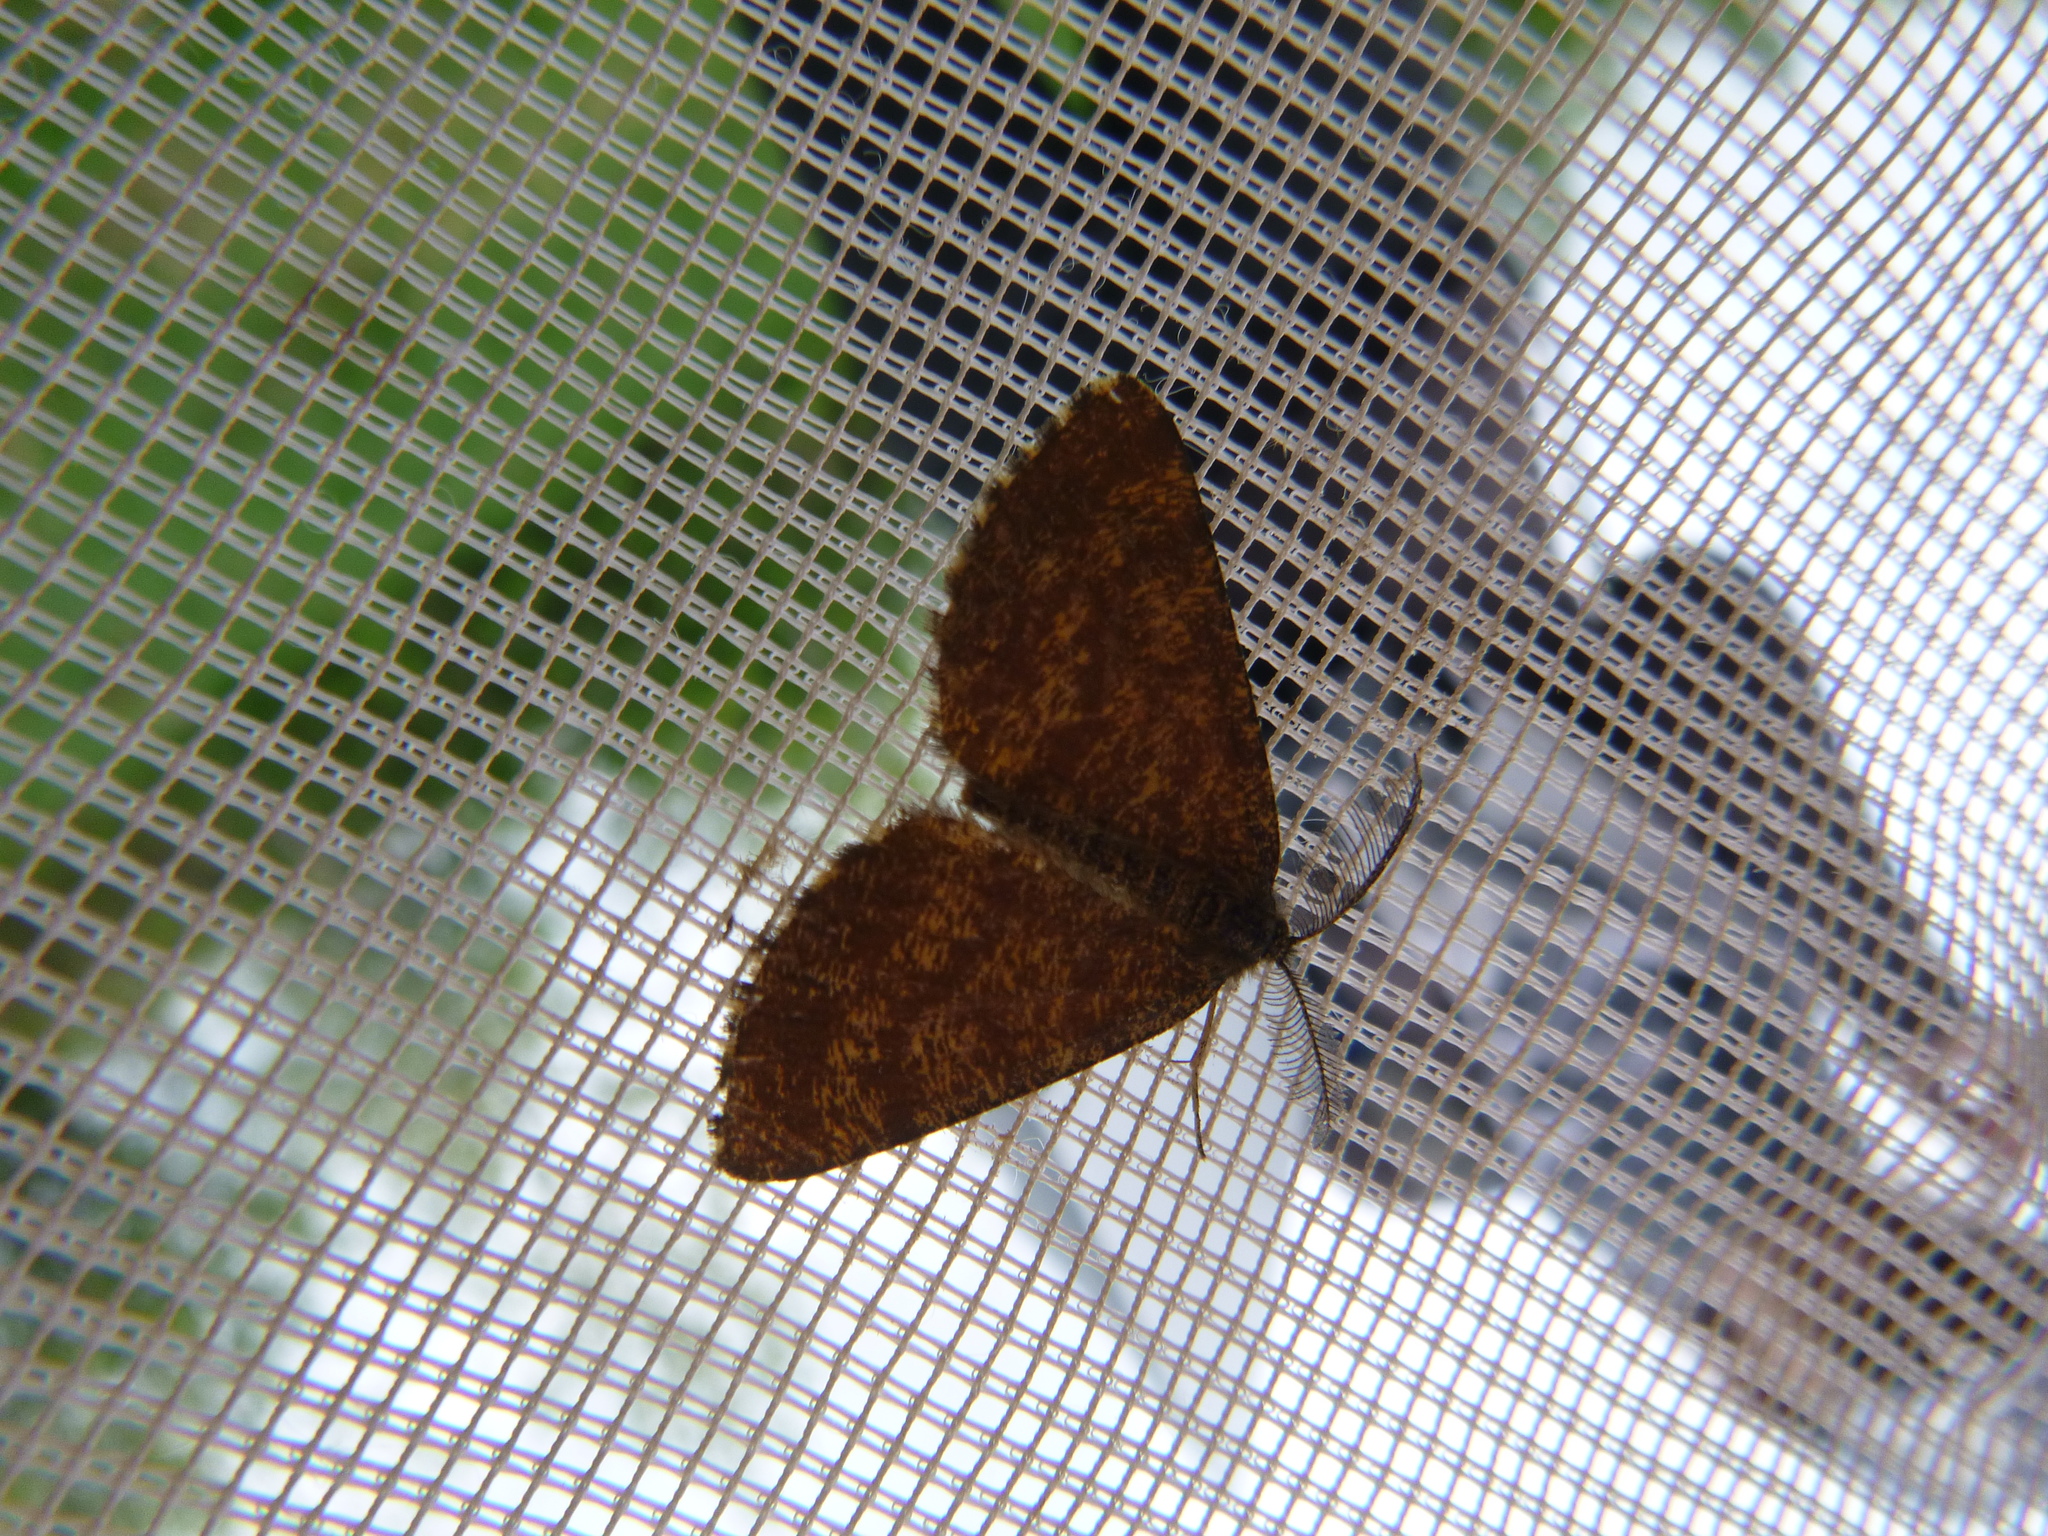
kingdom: Animalia
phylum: Arthropoda
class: Insecta
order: Lepidoptera
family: Geometridae
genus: Ematurga
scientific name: Ematurga atomaria
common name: Common heath
